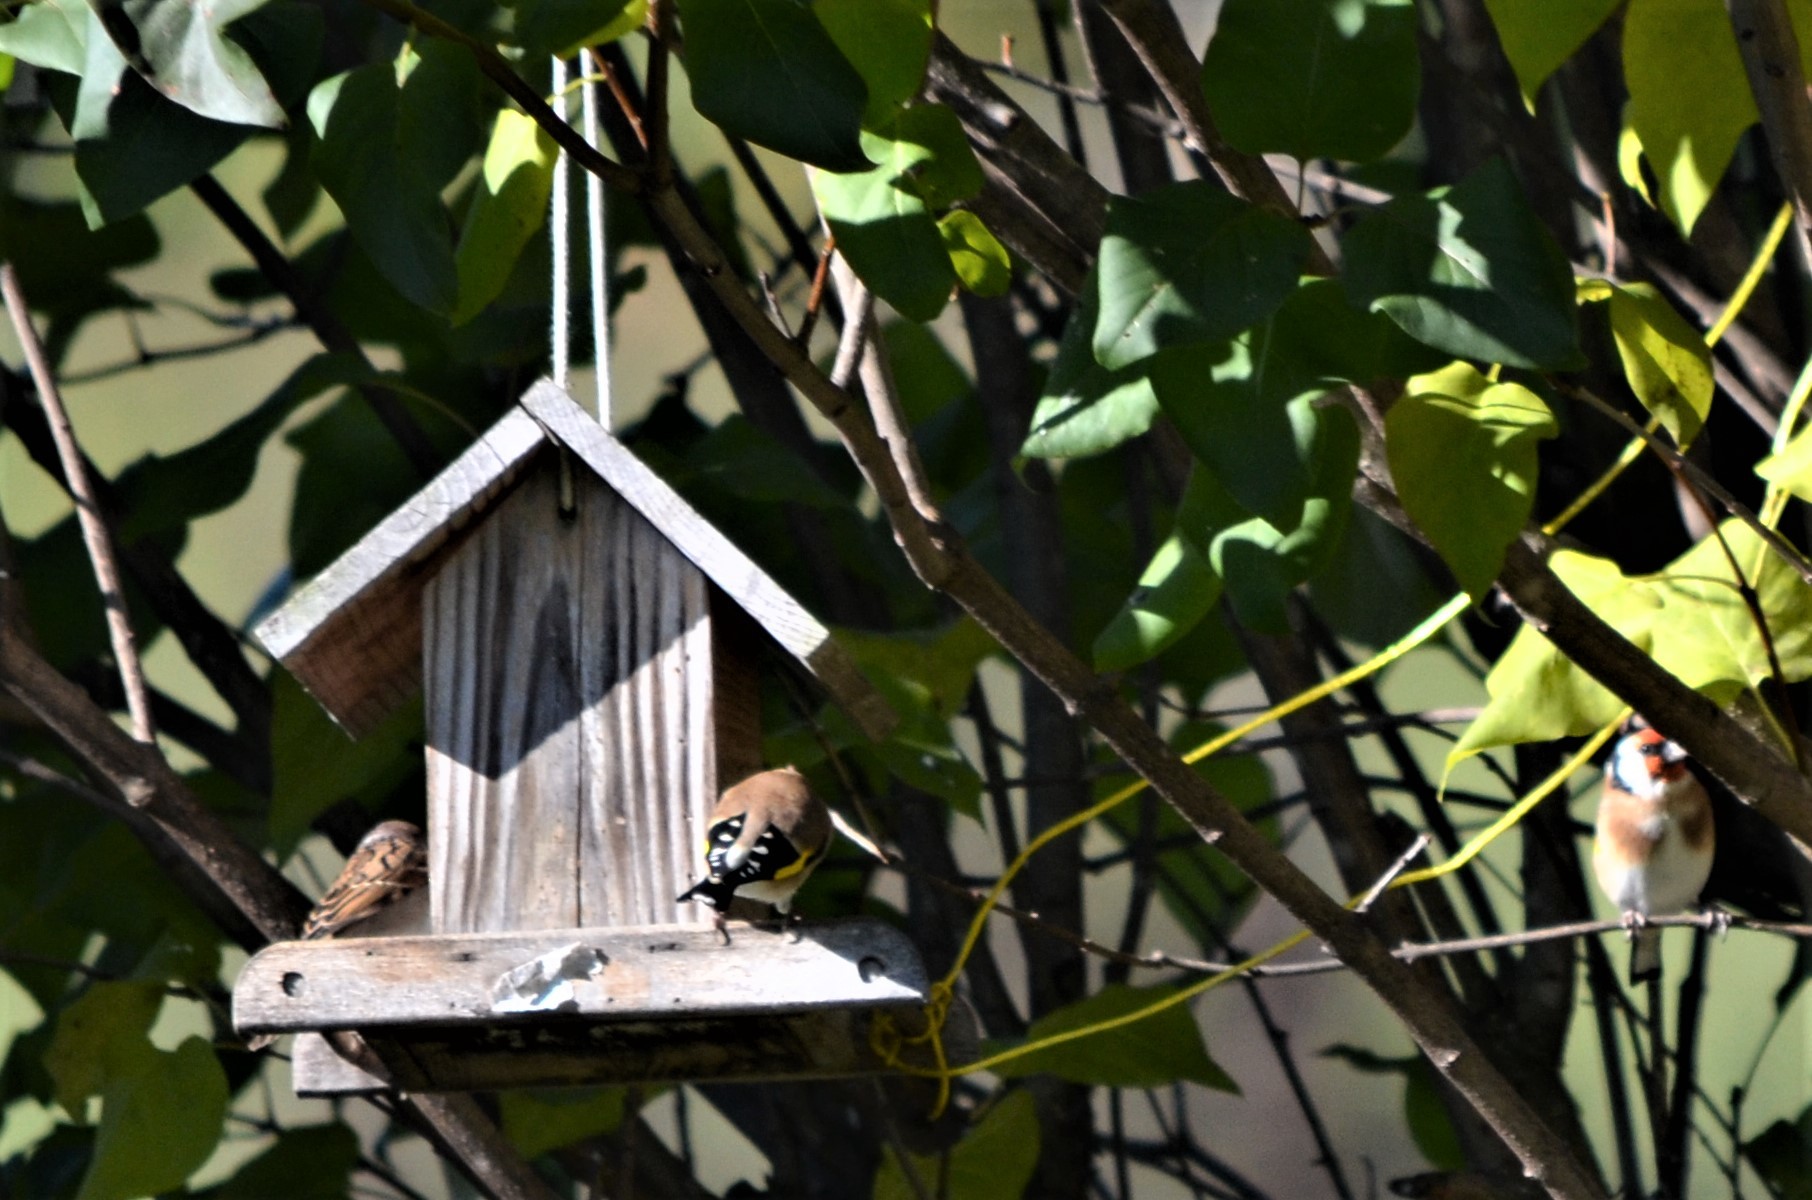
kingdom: Animalia
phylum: Chordata
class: Aves
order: Passeriformes
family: Fringillidae
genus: Carduelis
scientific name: Carduelis carduelis
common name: European goldfinch
